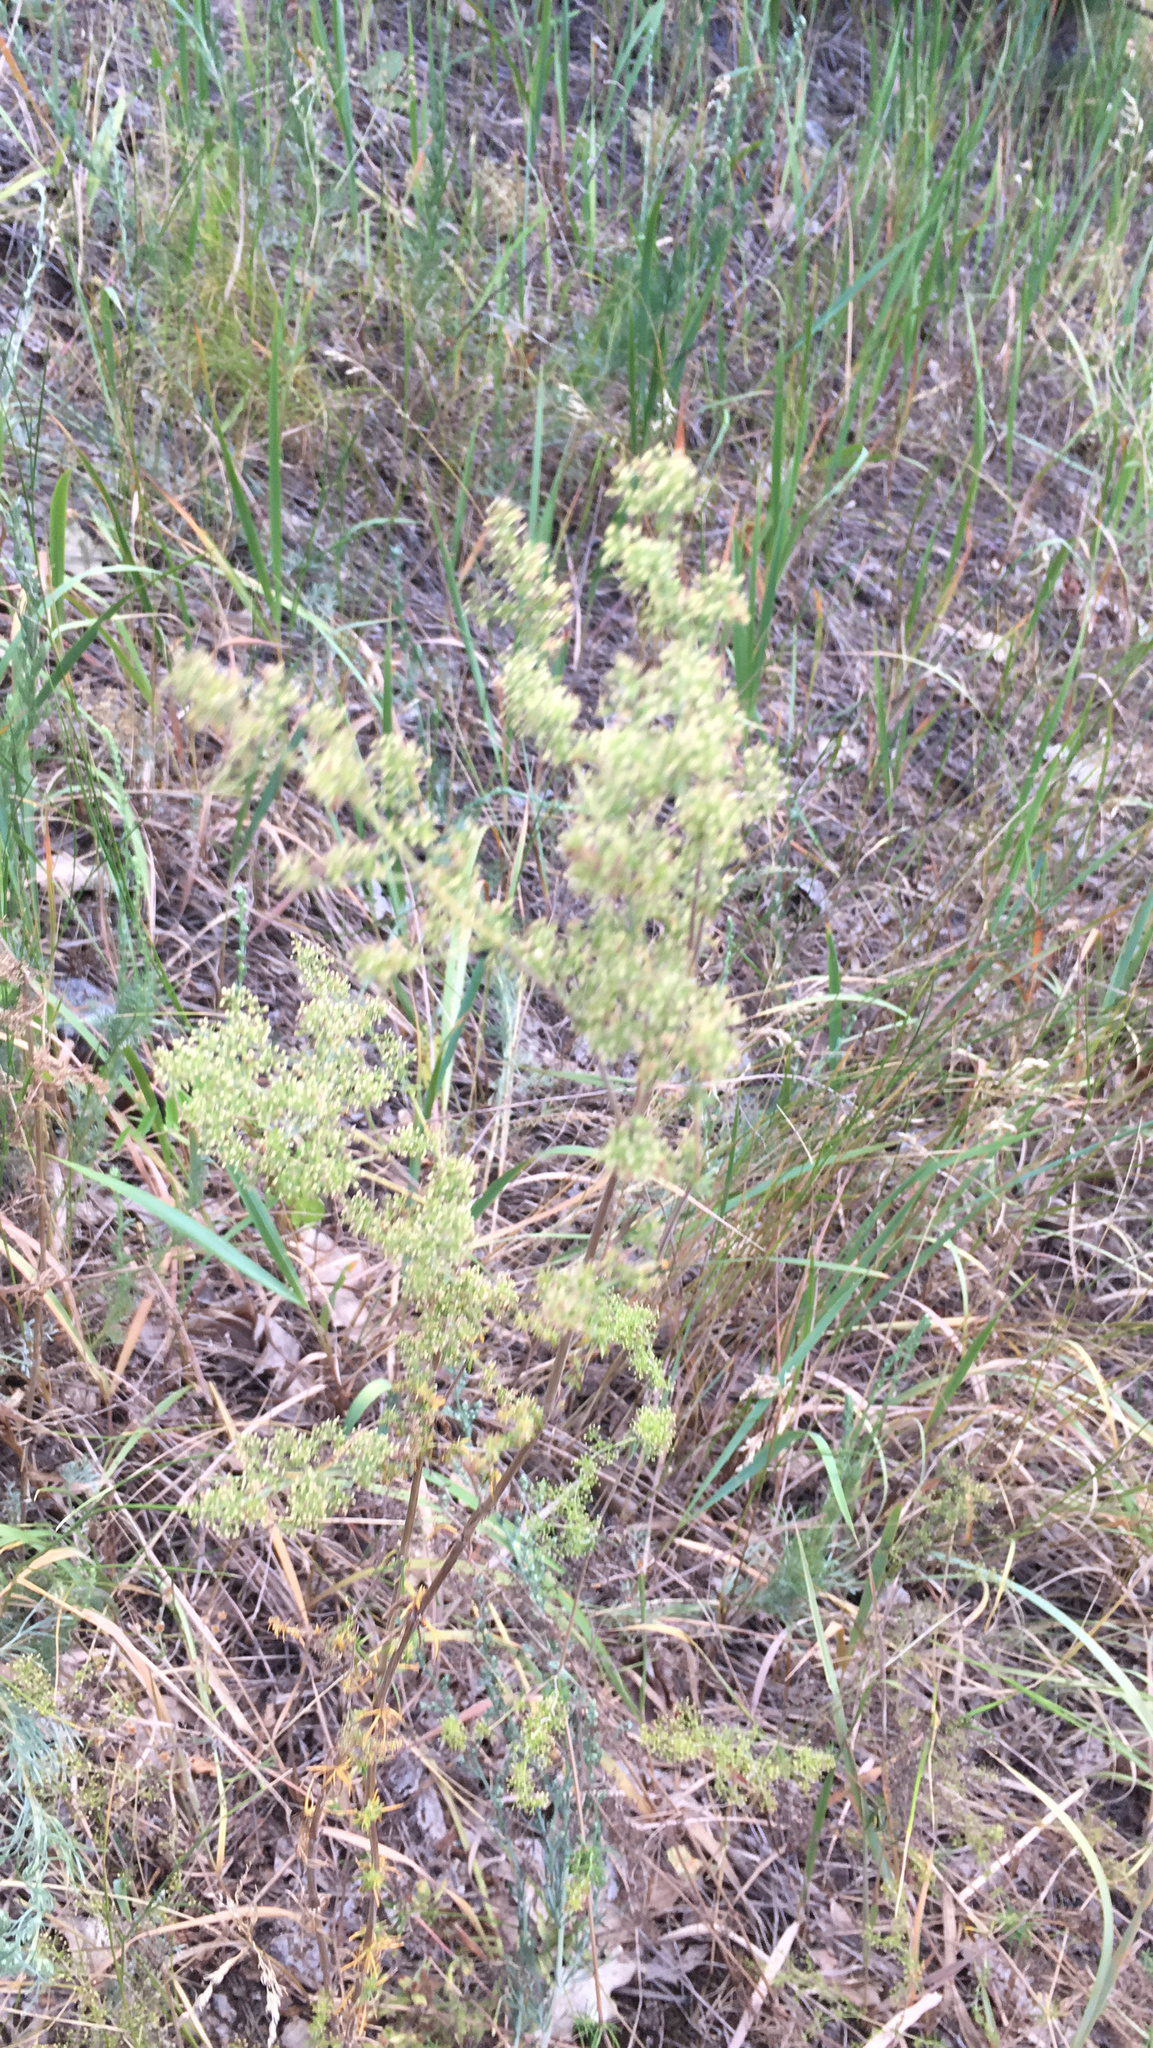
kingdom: Plantae
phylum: Tracheophyta
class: Magnoliopsida
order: Gentianales
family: Rubiaceae
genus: Galium
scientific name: Galium verum
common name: Lady's bedstraw
